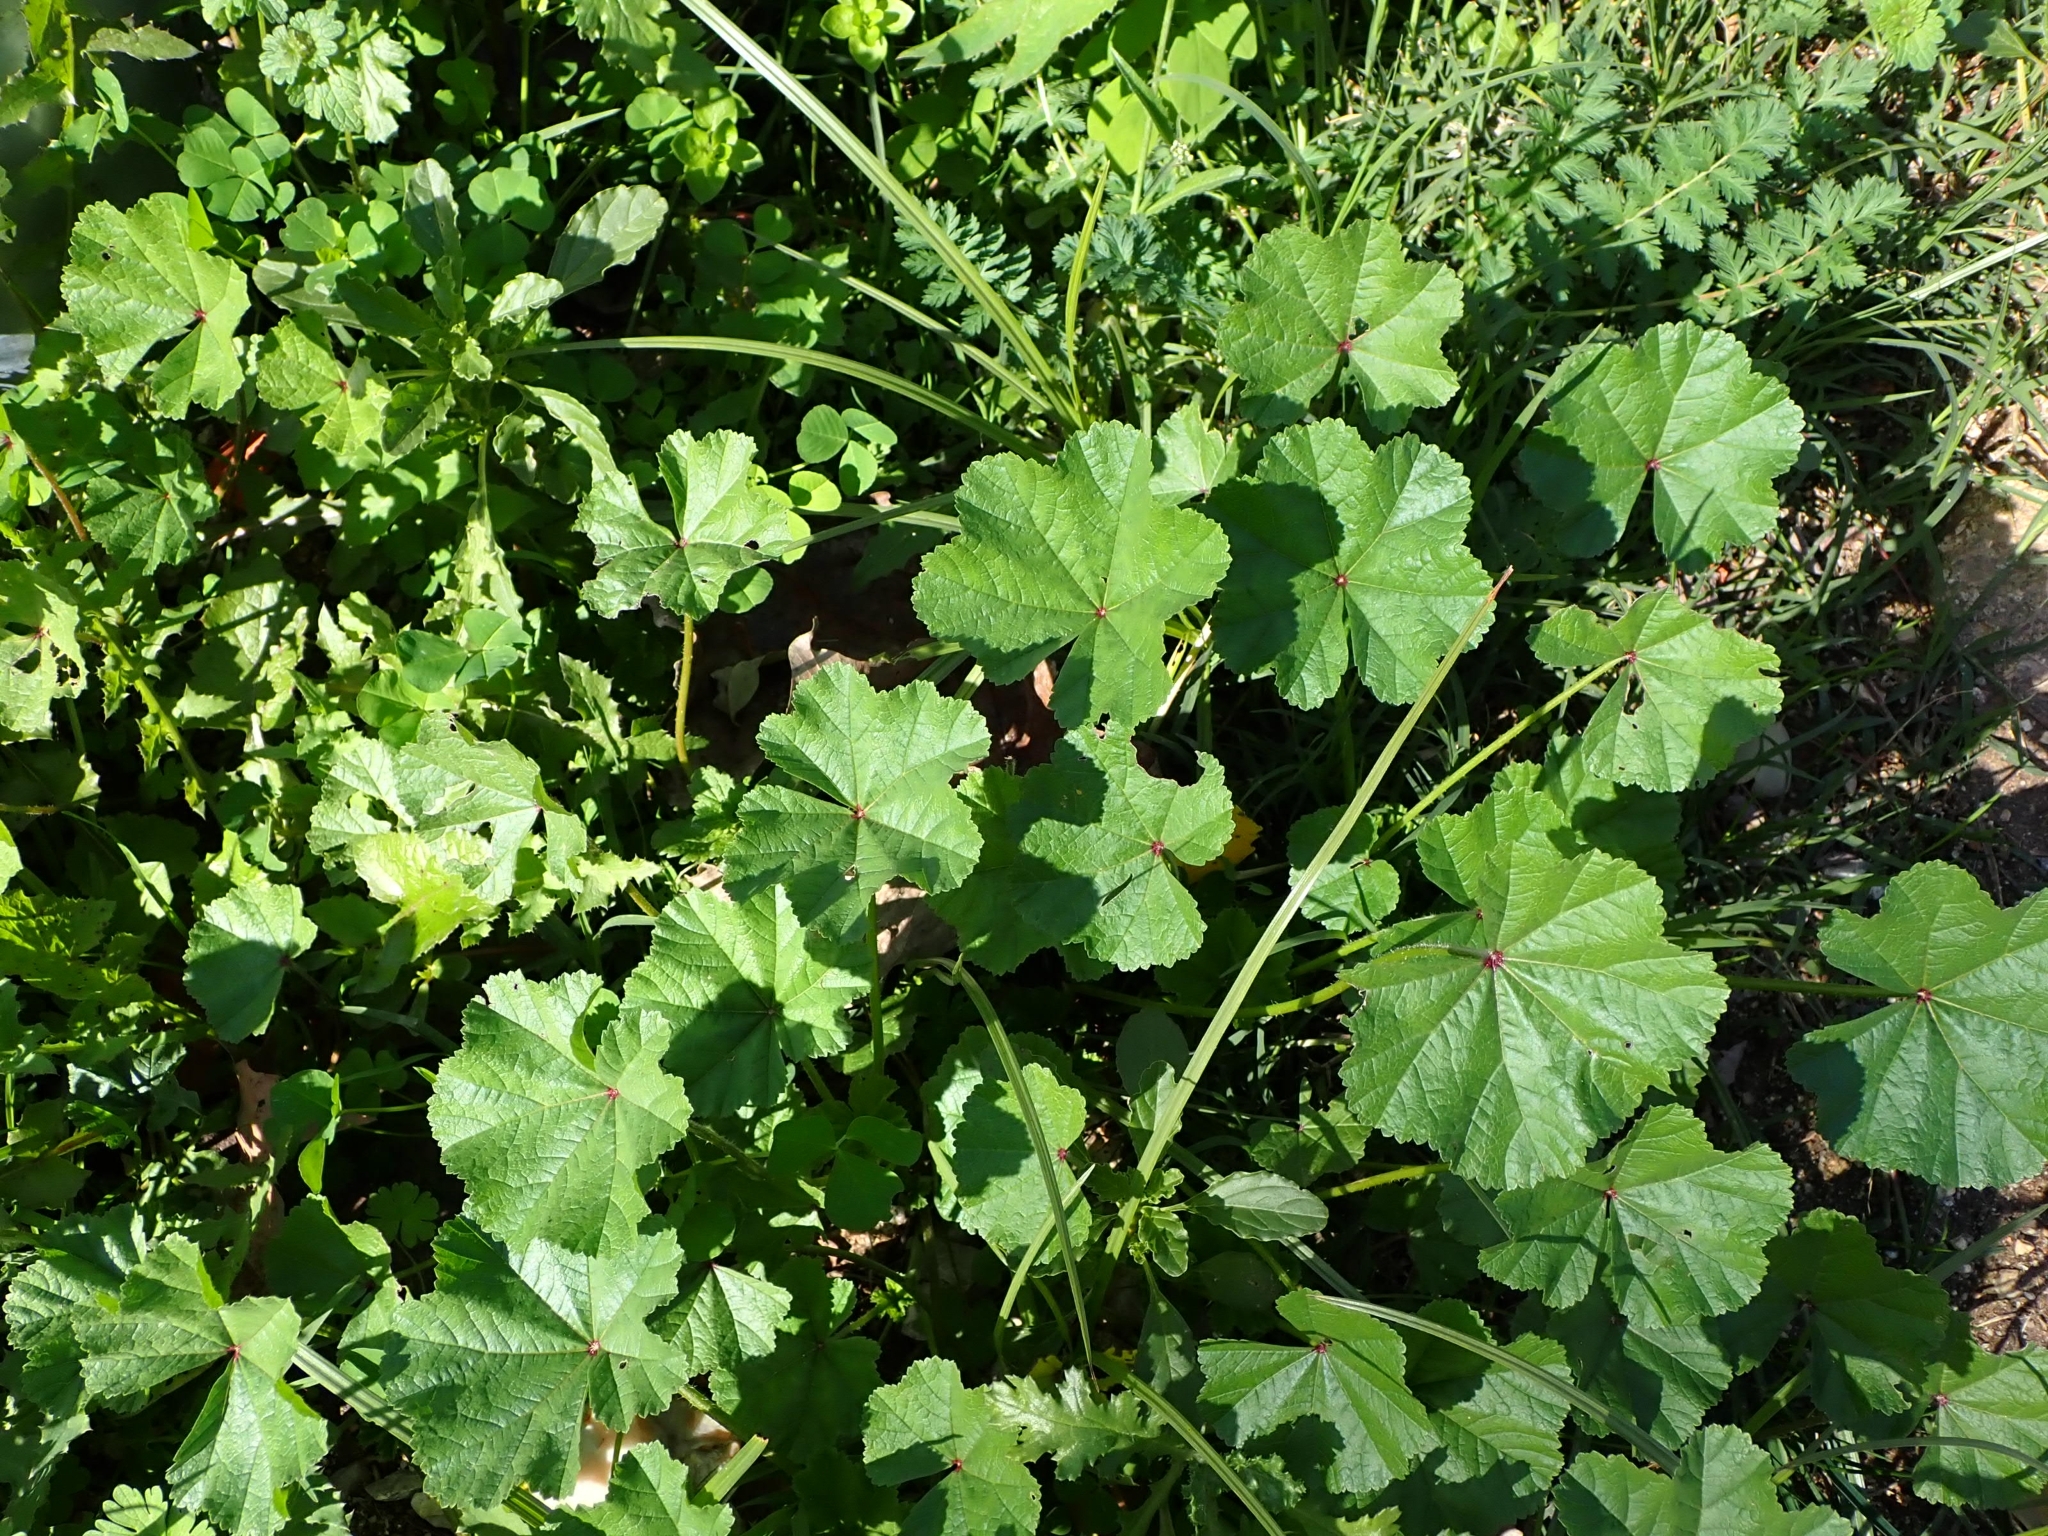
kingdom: Plantae
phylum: Tracheophyta
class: Magnoliopsida
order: Malvales
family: Malvaceae
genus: Malva
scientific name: Malva sylvestris
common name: Common mallow
